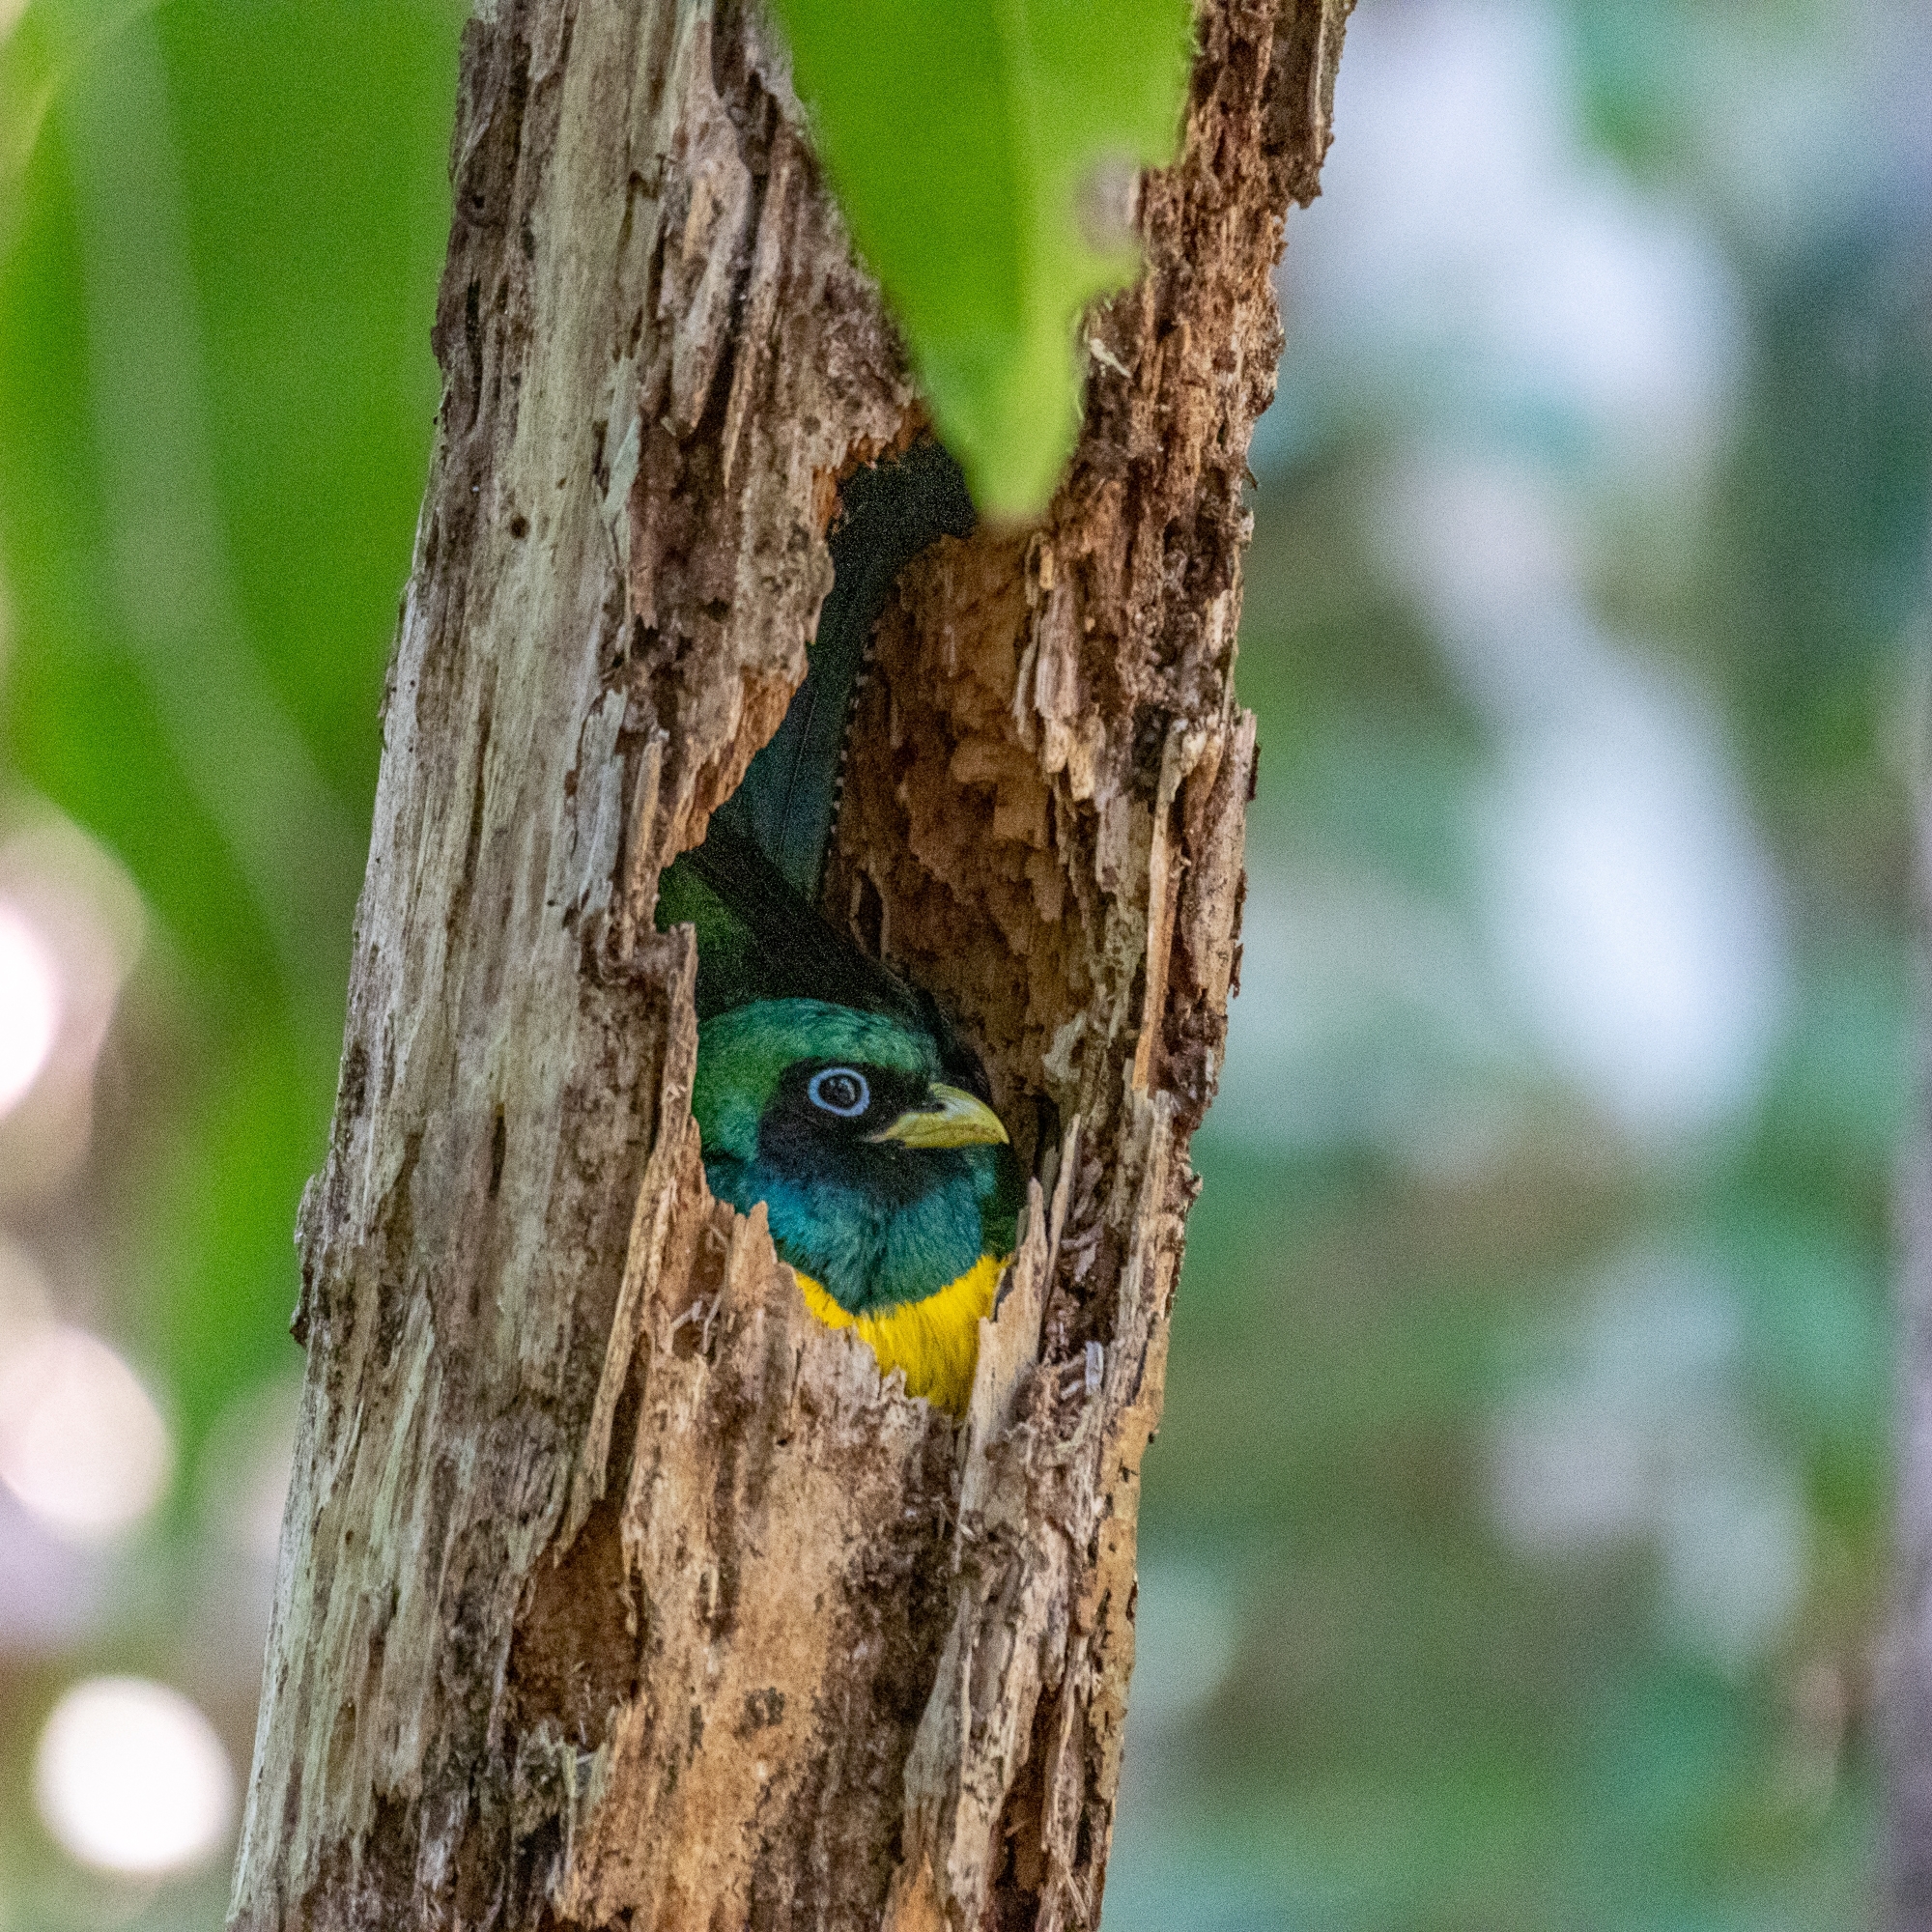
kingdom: Animalia
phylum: Chordata
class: Aves
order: Trogoniformes
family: Trogonidae
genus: Trogon
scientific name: Trogon rufus
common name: Black-throated trogon
